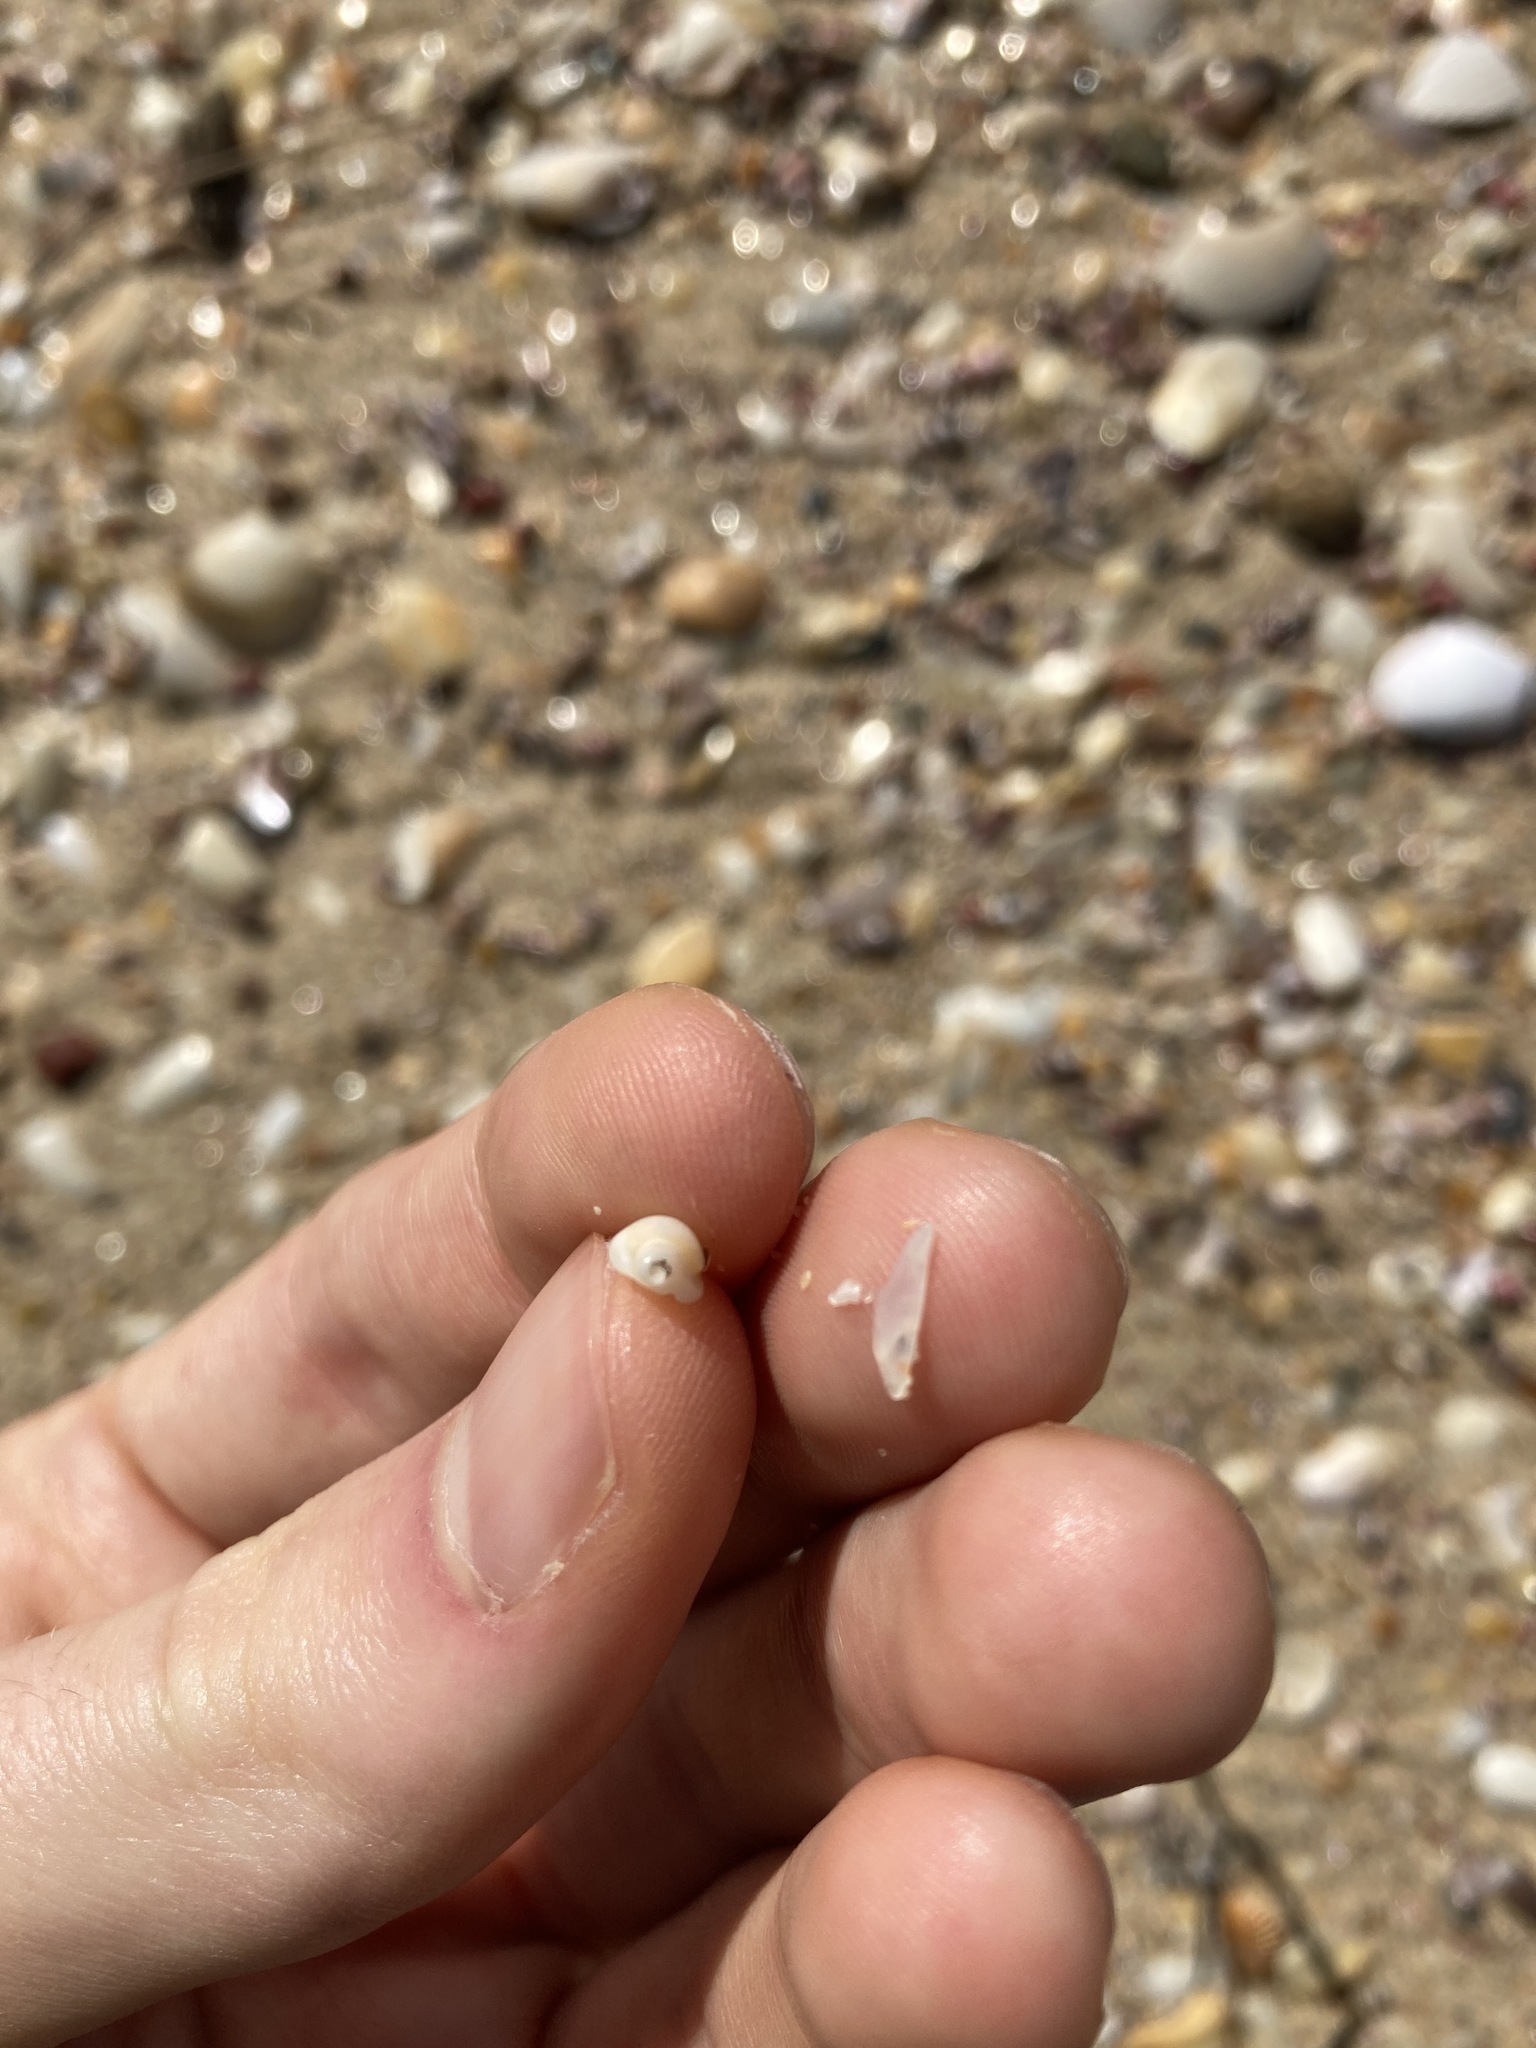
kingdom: Animalia
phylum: Mollusca
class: Gastropoda
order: Neogastropoda
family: Marginellidae
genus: Austroginella
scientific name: Austroginella johnstoni
